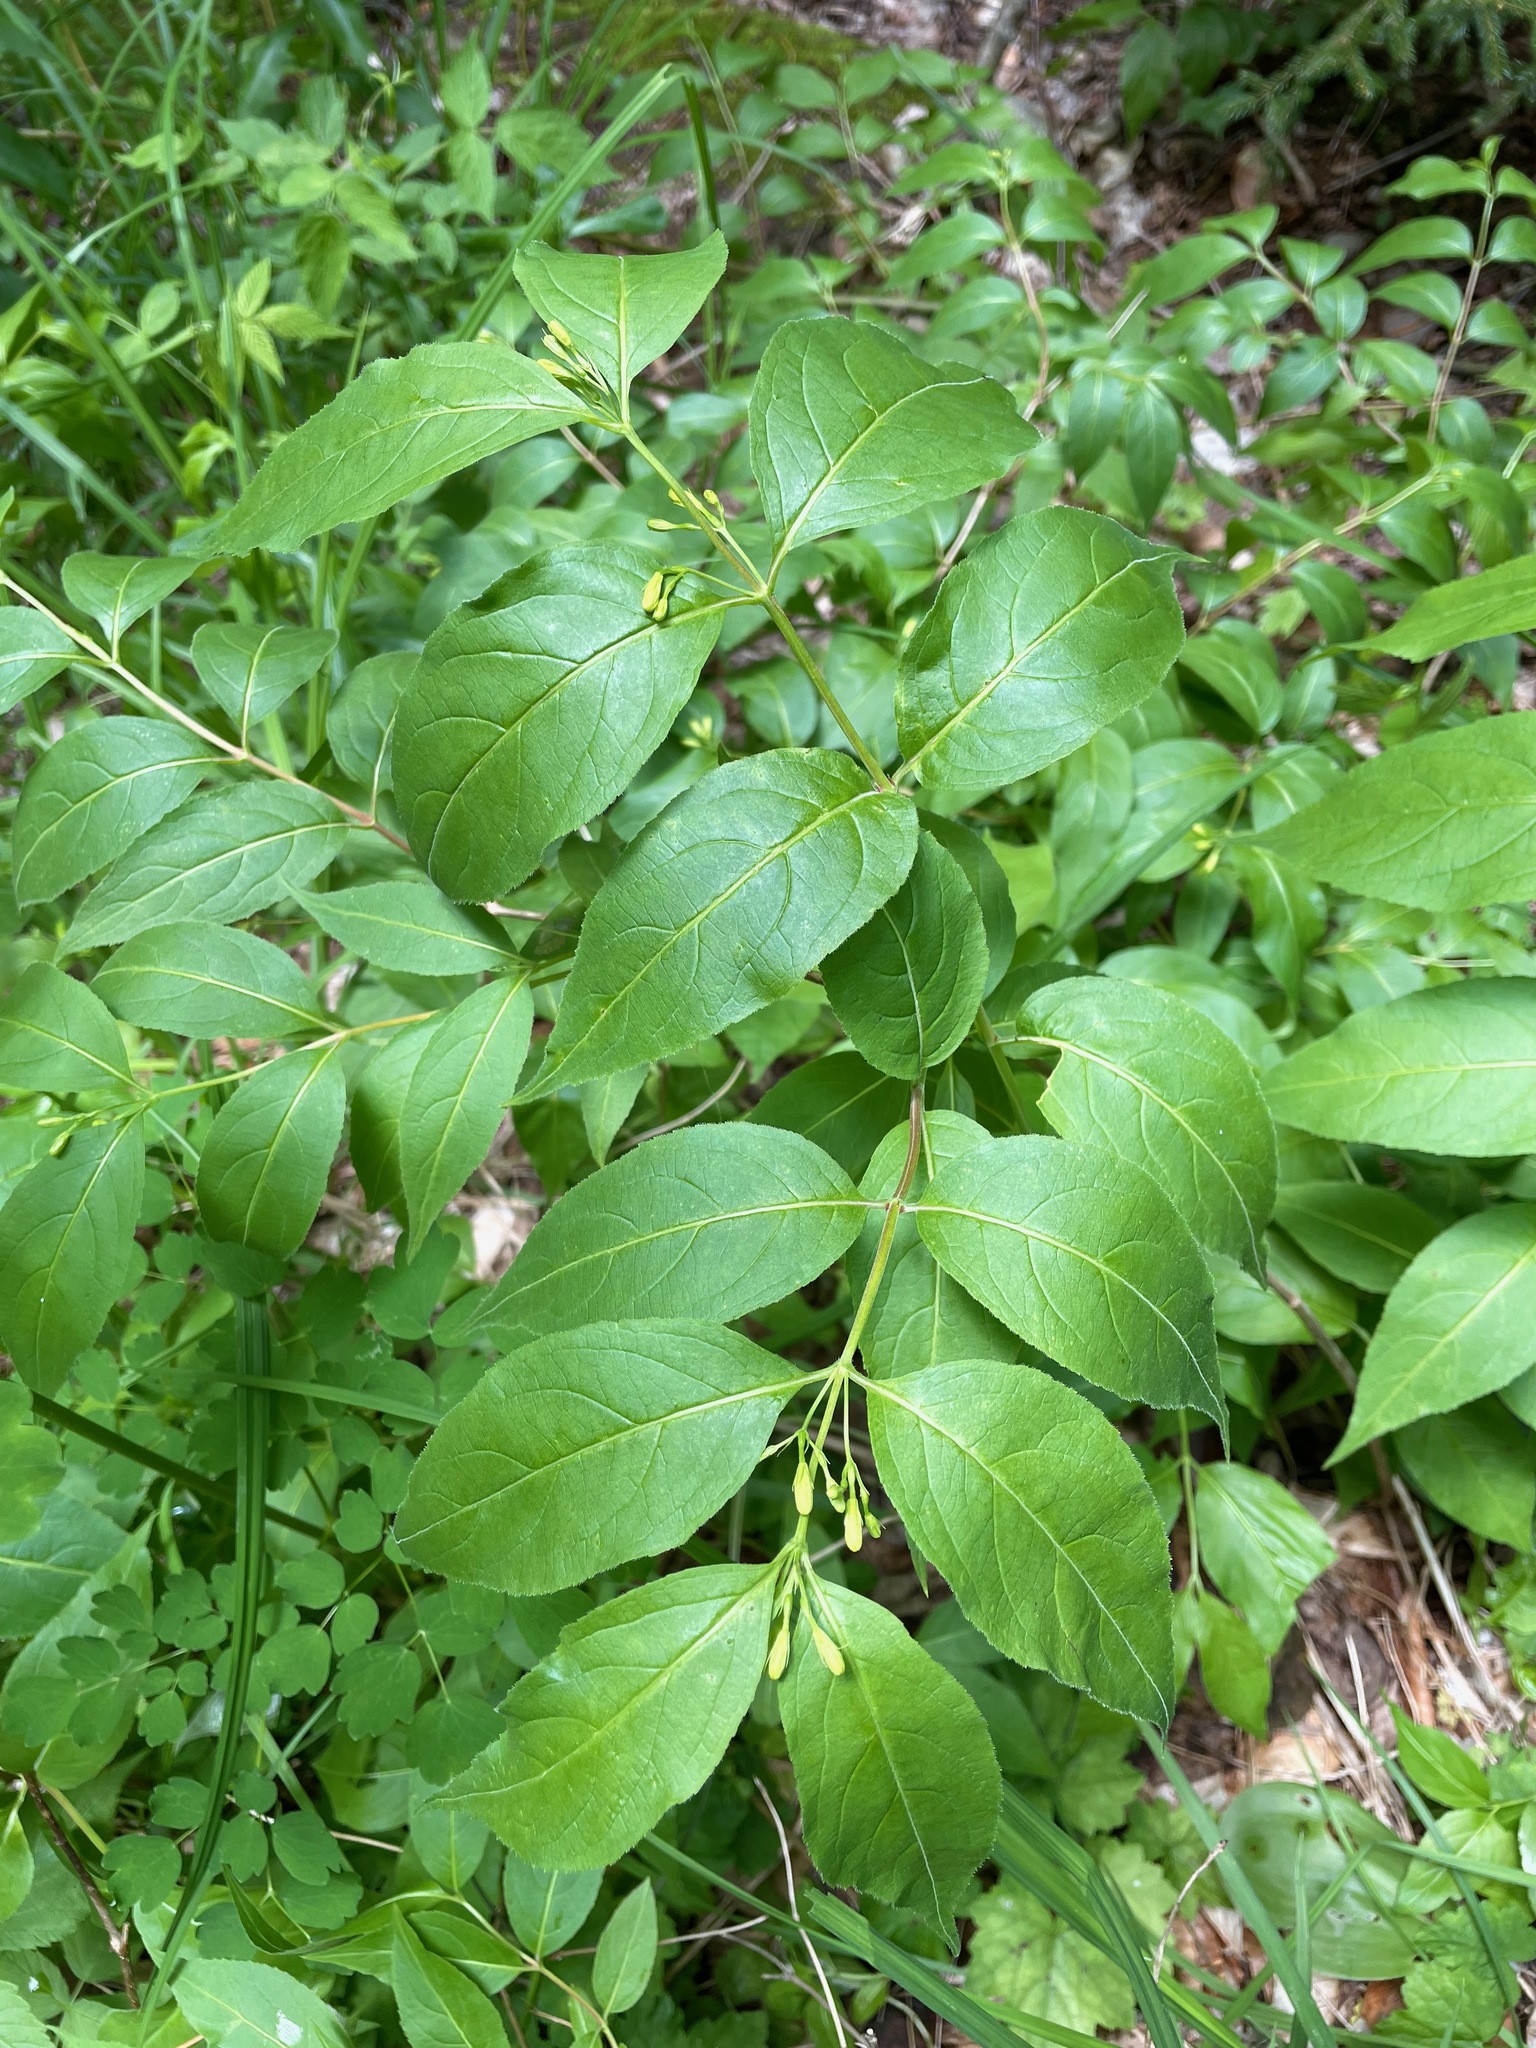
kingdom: Plantae
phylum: Tracheophyta
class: Magnoliopsida
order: Dipsacales
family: Caprifoliaceae
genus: Diervilla
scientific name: Diervilla lonicera
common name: Bush-honeysuckle
